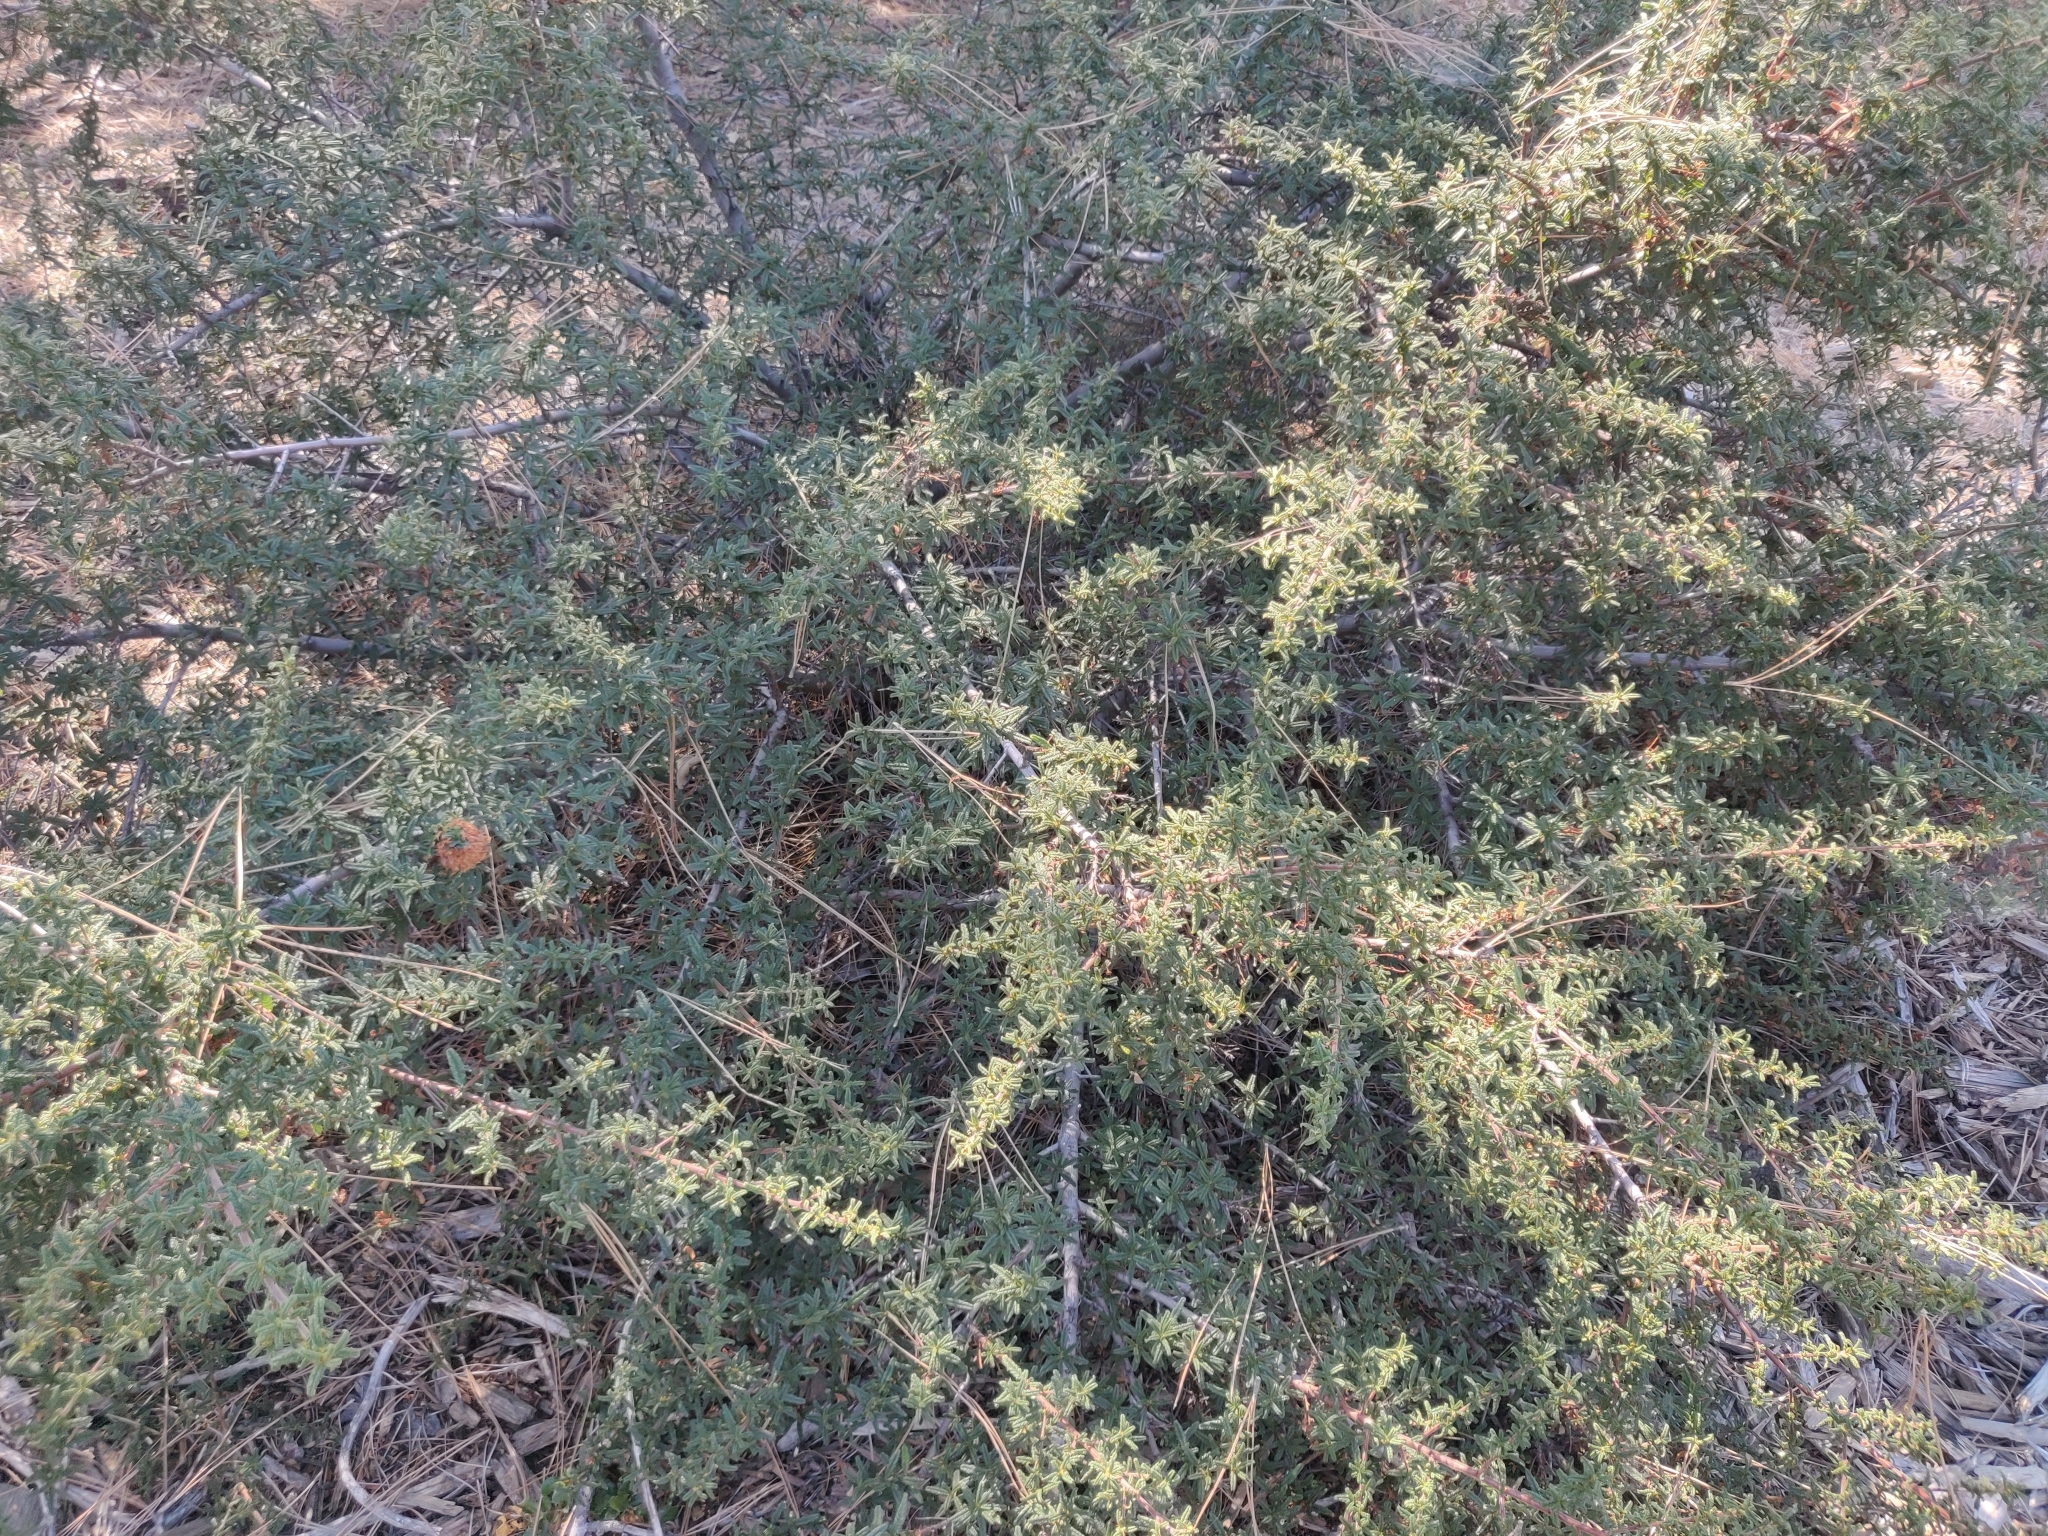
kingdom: Plantae
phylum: Tracheophyta
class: Magnoliopsida
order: Rosales
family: Rhamnaceae
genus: Ceanothus
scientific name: Ceanothus papillosus
